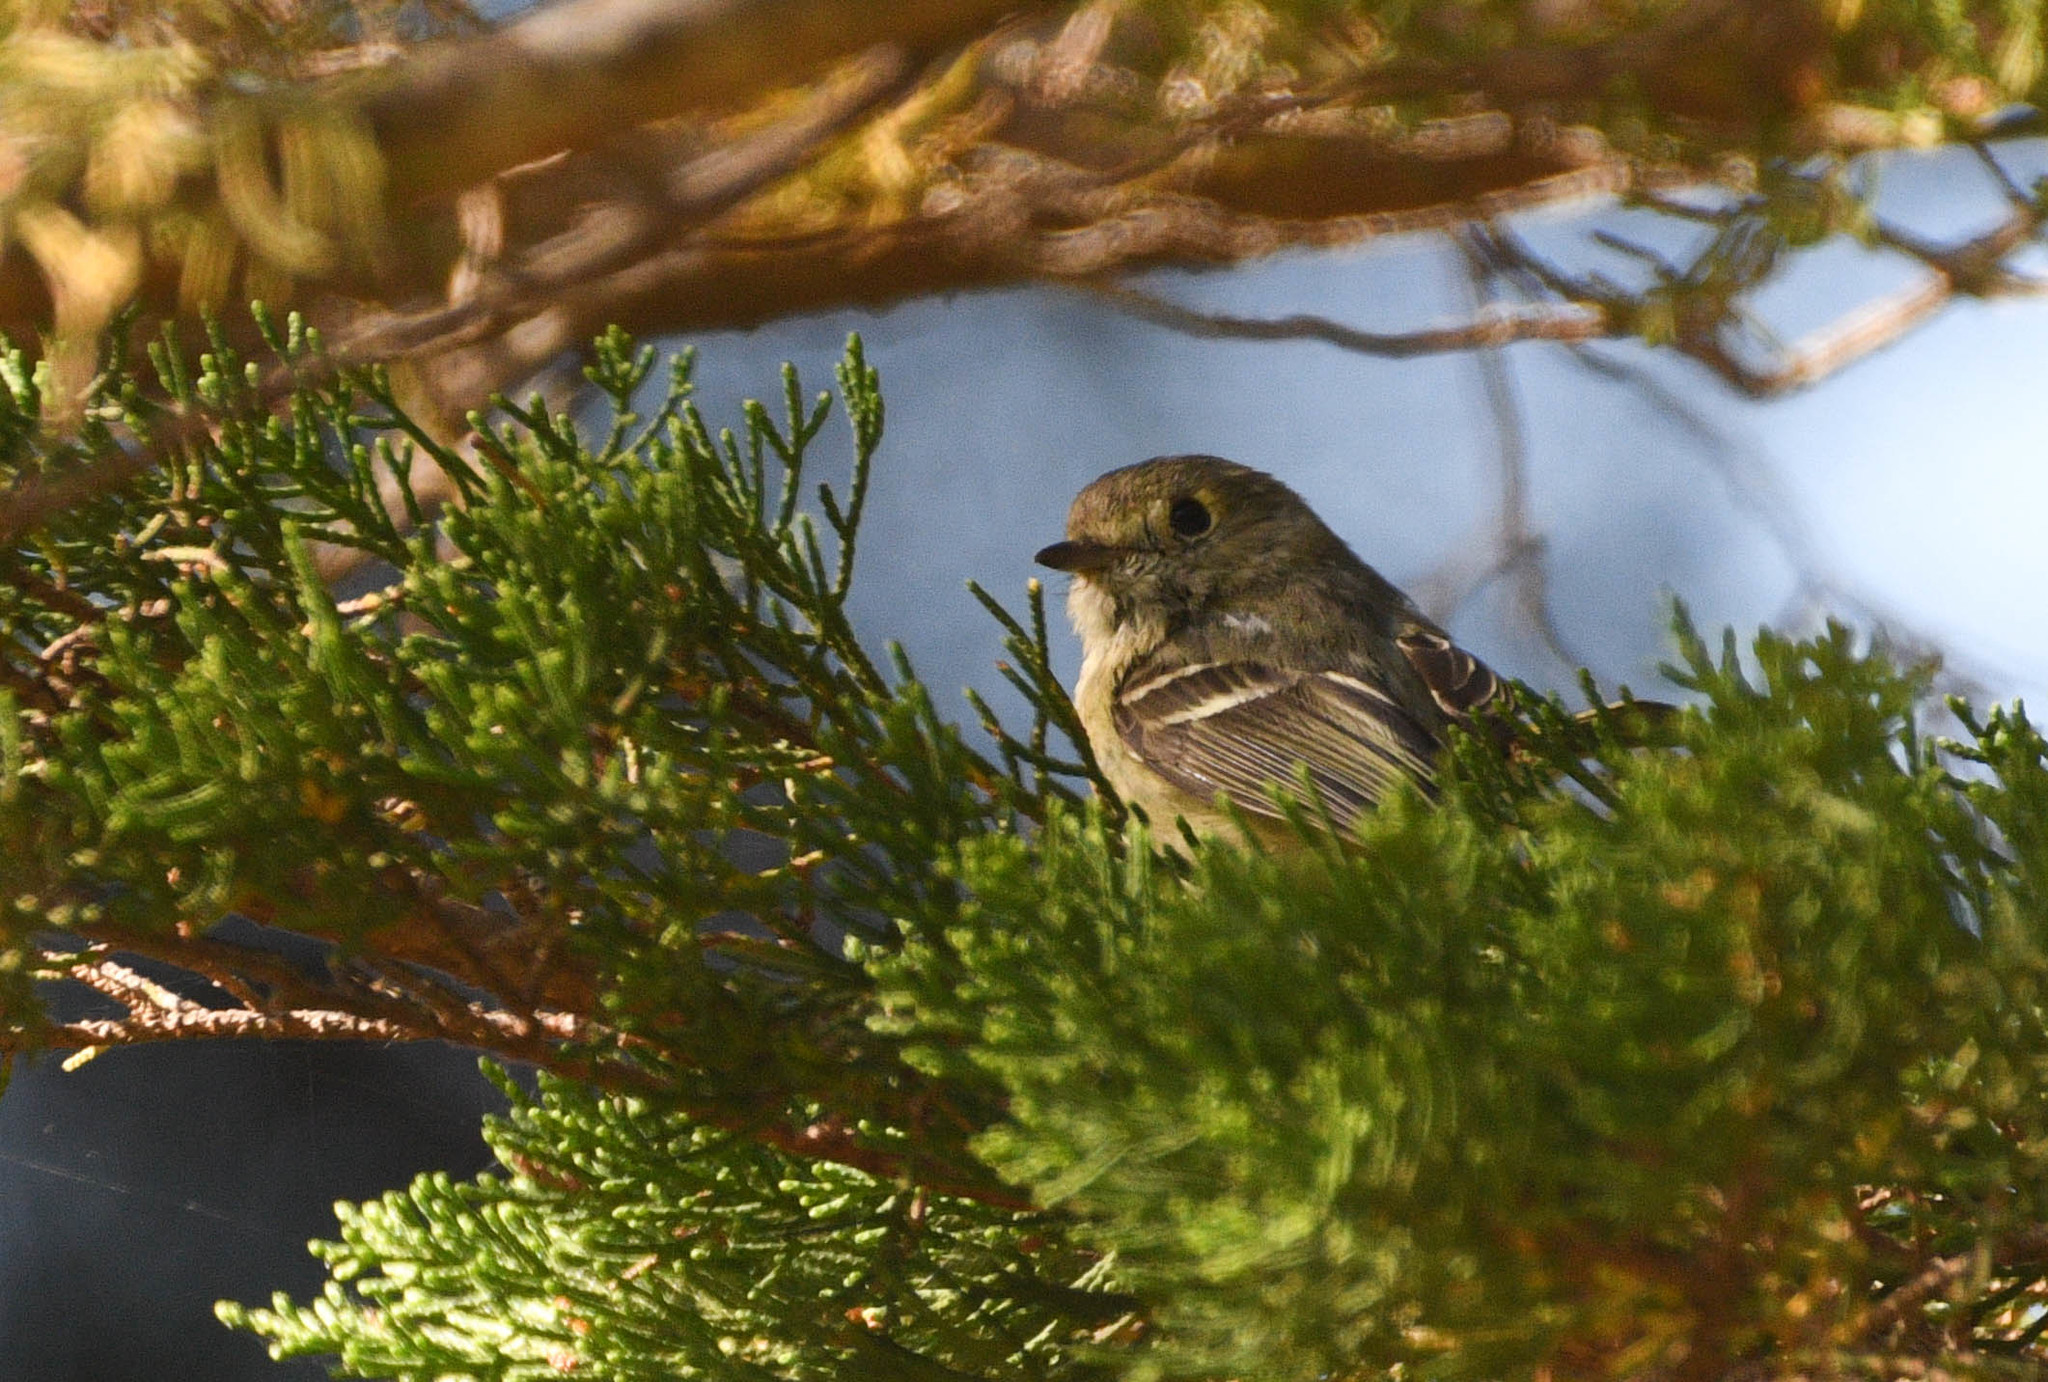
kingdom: Animalia
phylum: Chordata
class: Aves
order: Passeriformes
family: Vireonidae
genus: Vireo
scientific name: Vireo huttoni
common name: Hutton's vireo
